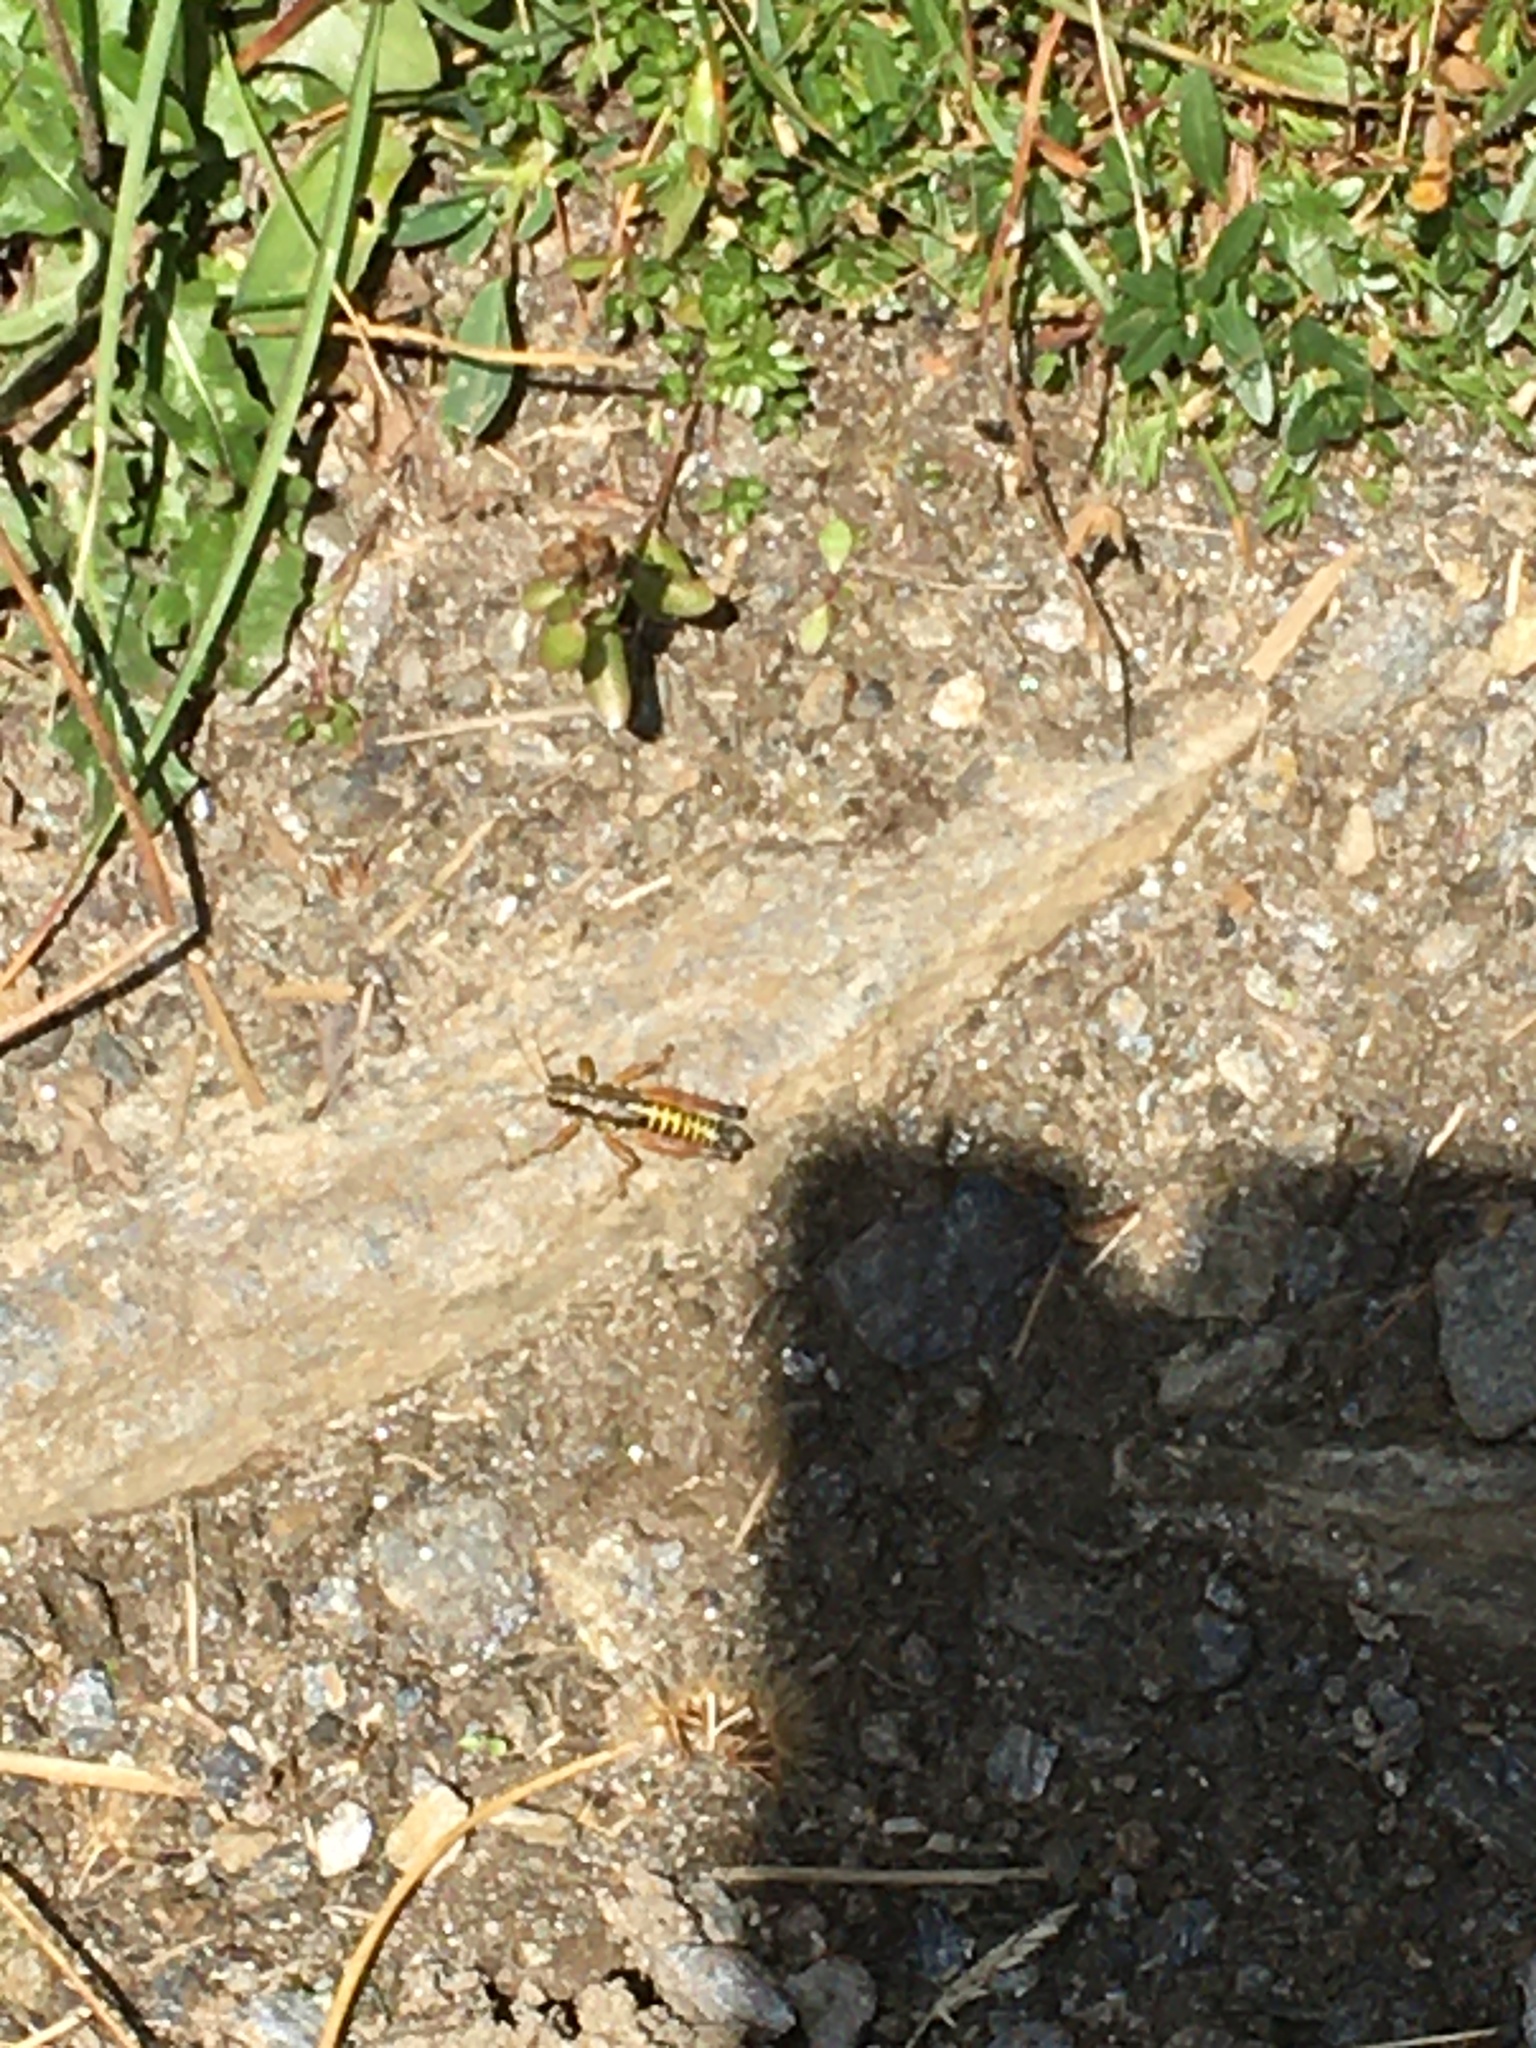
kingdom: Animalia
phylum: Arthropoda
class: Insecta
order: Orthoptera
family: Acrididae
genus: Podisma
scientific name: Podisma pedestris
